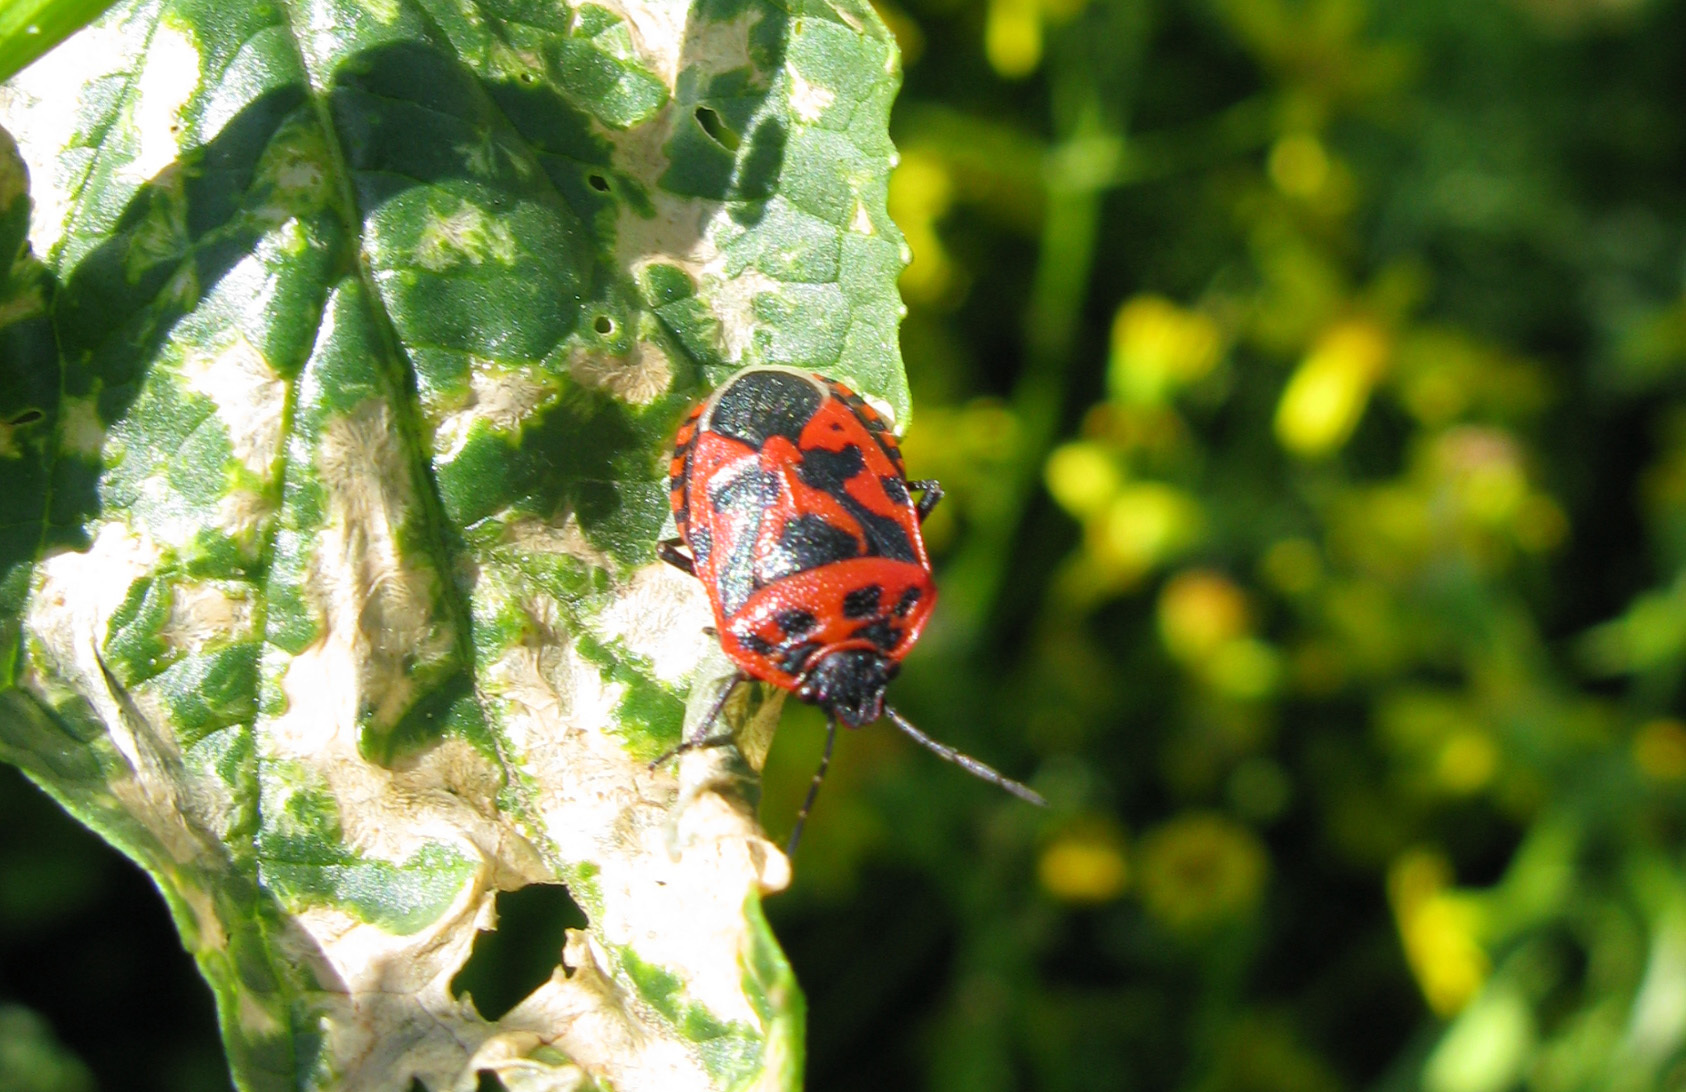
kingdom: Animalia
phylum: Arthropoda
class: Insecta
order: Hemiptera
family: Pentatomidae
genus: Eurydema
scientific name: Eurydema ventralis
